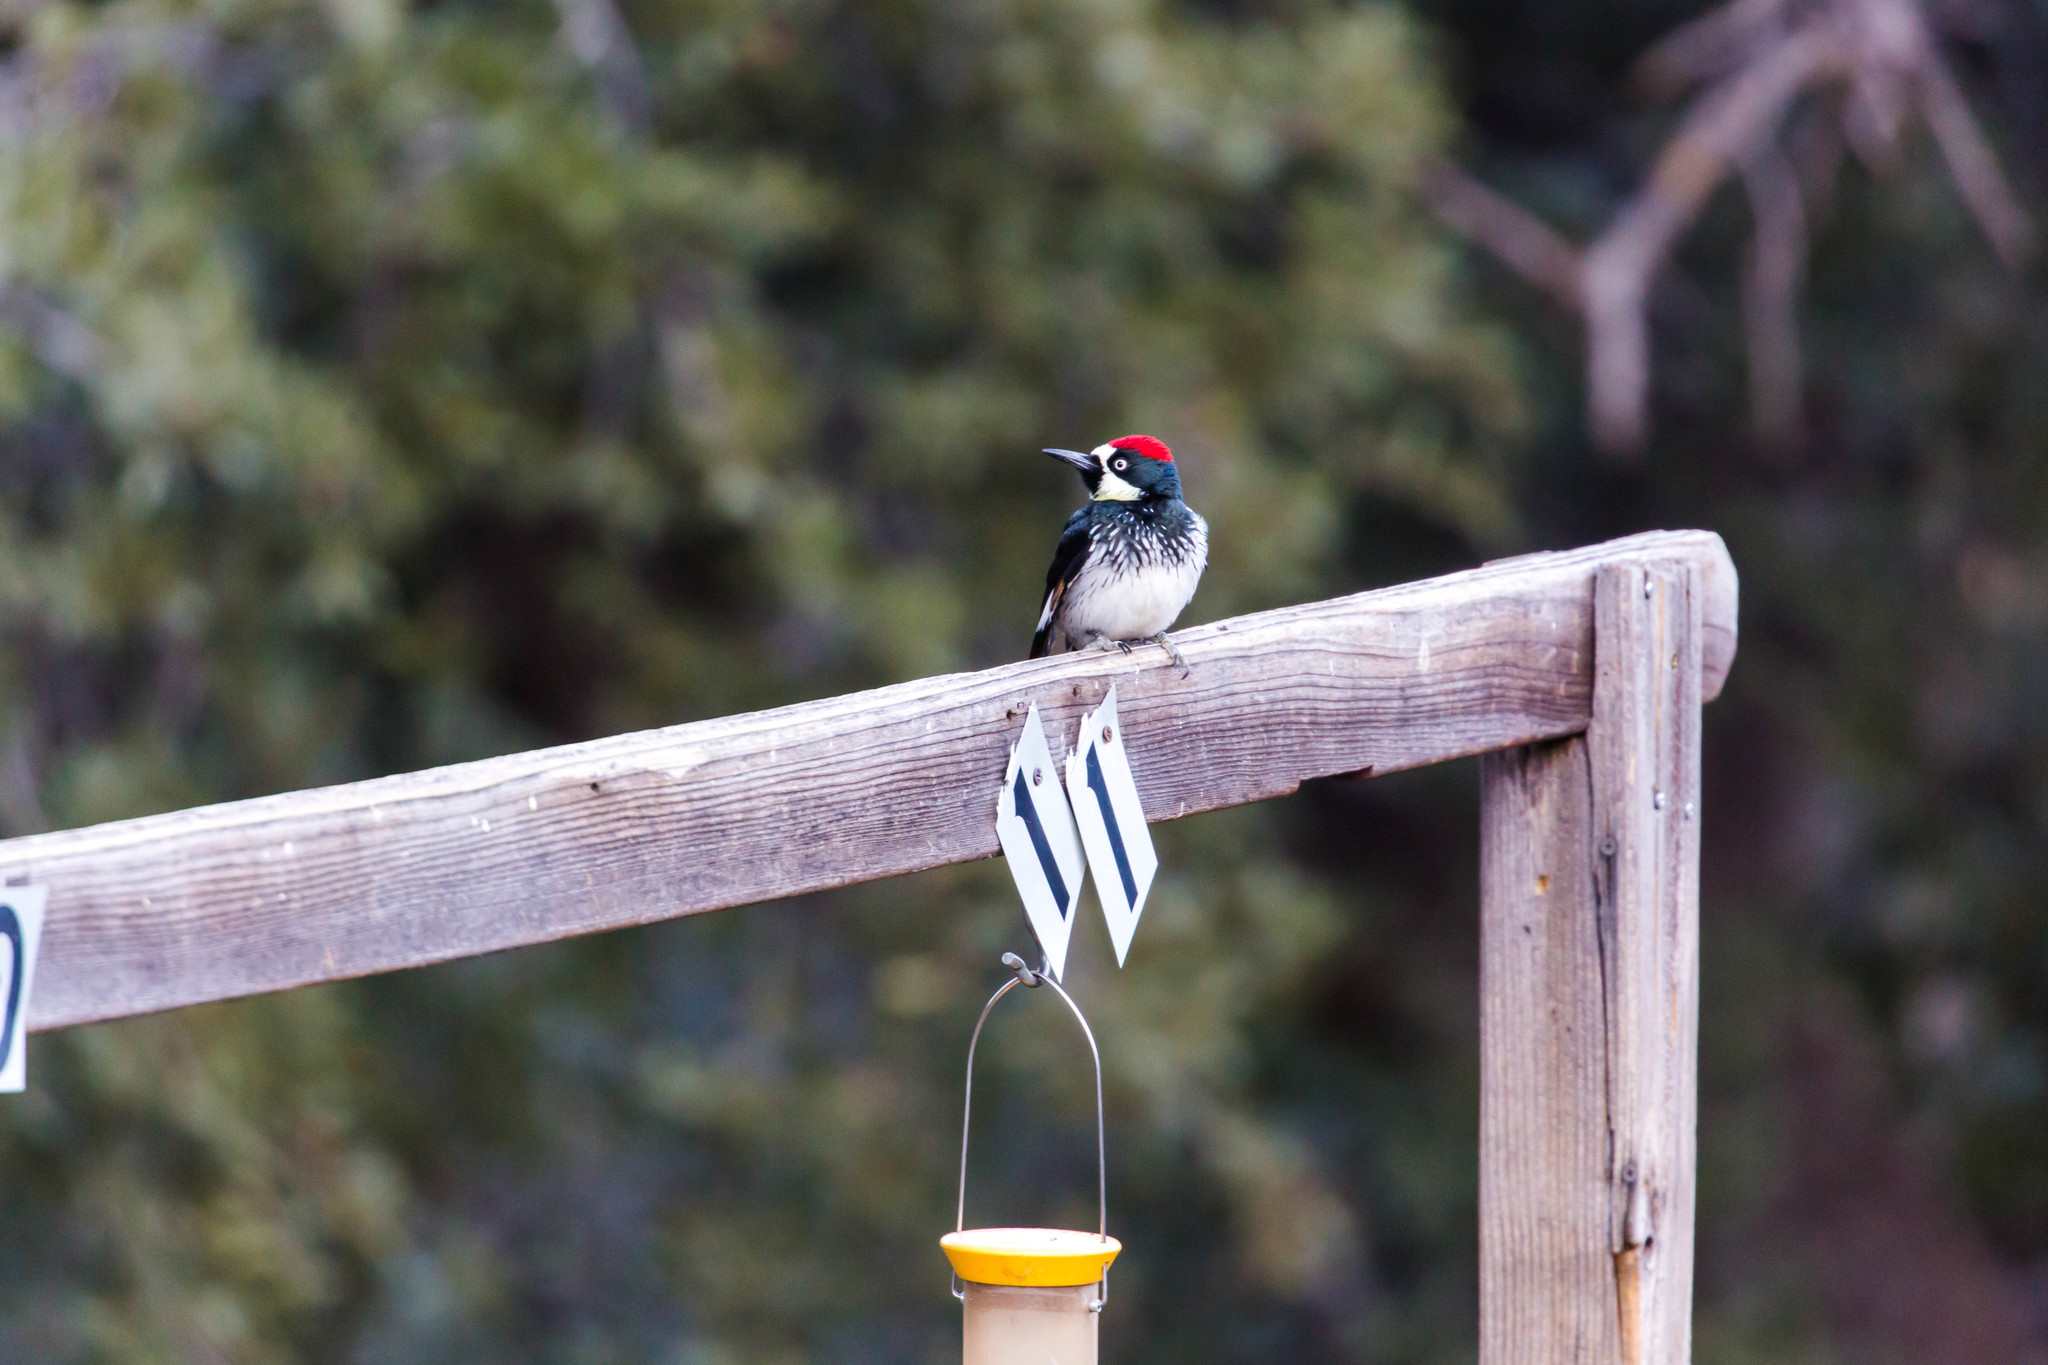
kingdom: Animalia
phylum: Chordata
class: Aves
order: Piciformes
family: Picidae
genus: Melanerpes
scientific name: Melanerpes formicivorus
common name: Acorn woodpecker
